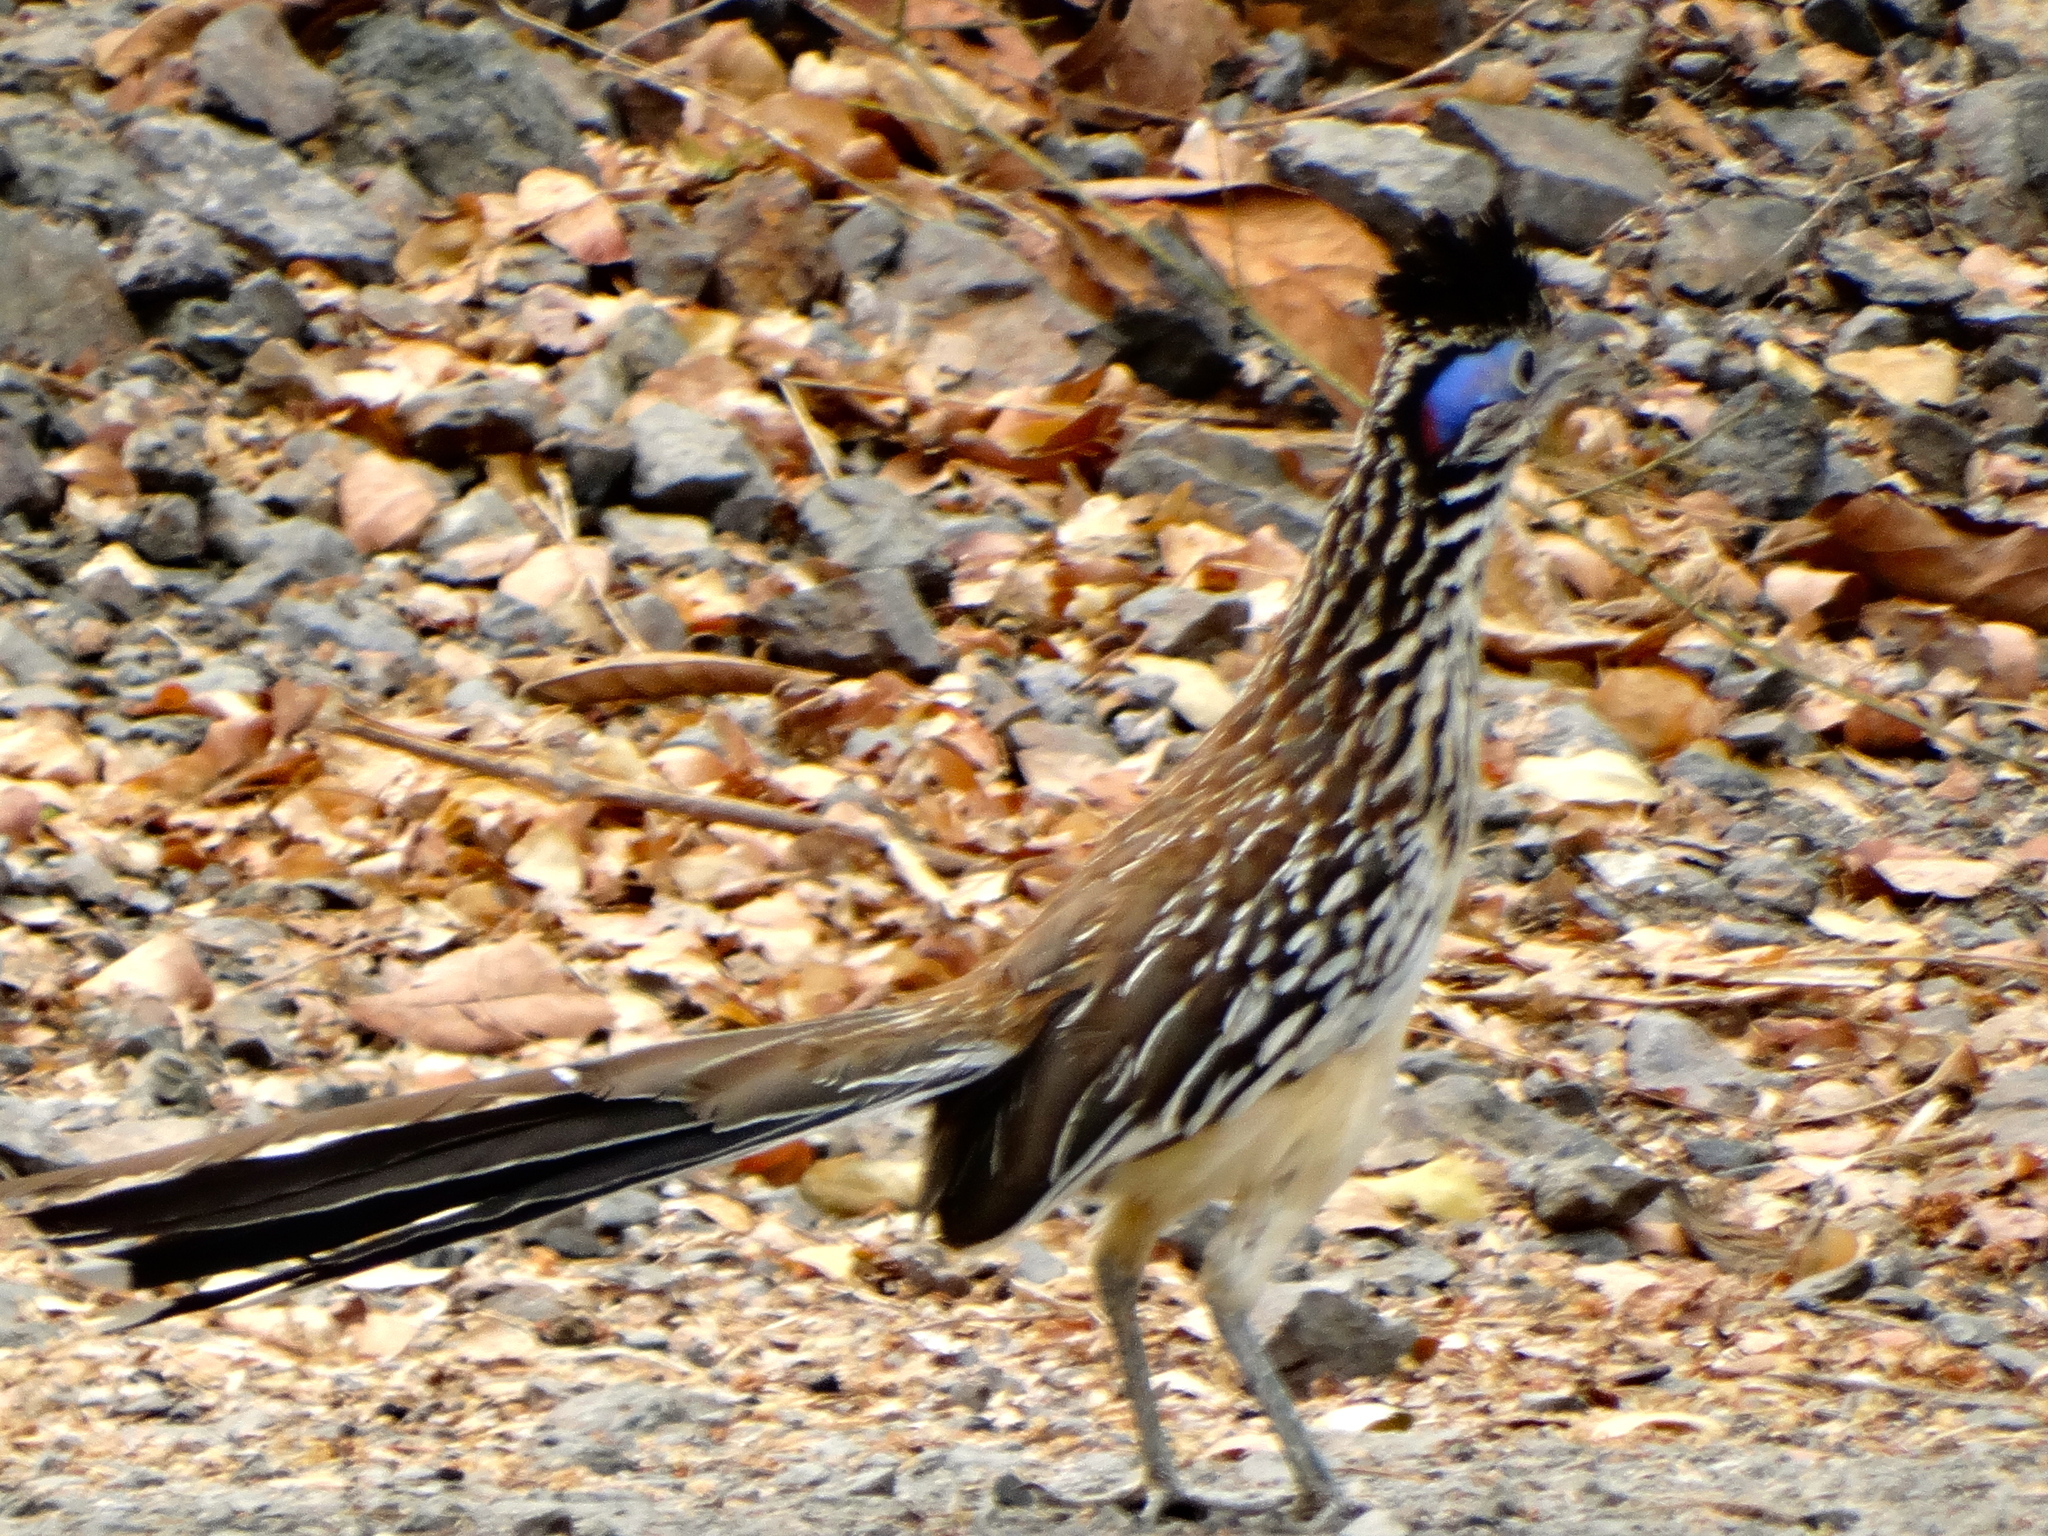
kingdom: Animalia
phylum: Chordata
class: Aves
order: Cuculiformes
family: Cuculidae
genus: Geococcyx
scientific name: Geococcyx velox
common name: Lesser roadrunner
